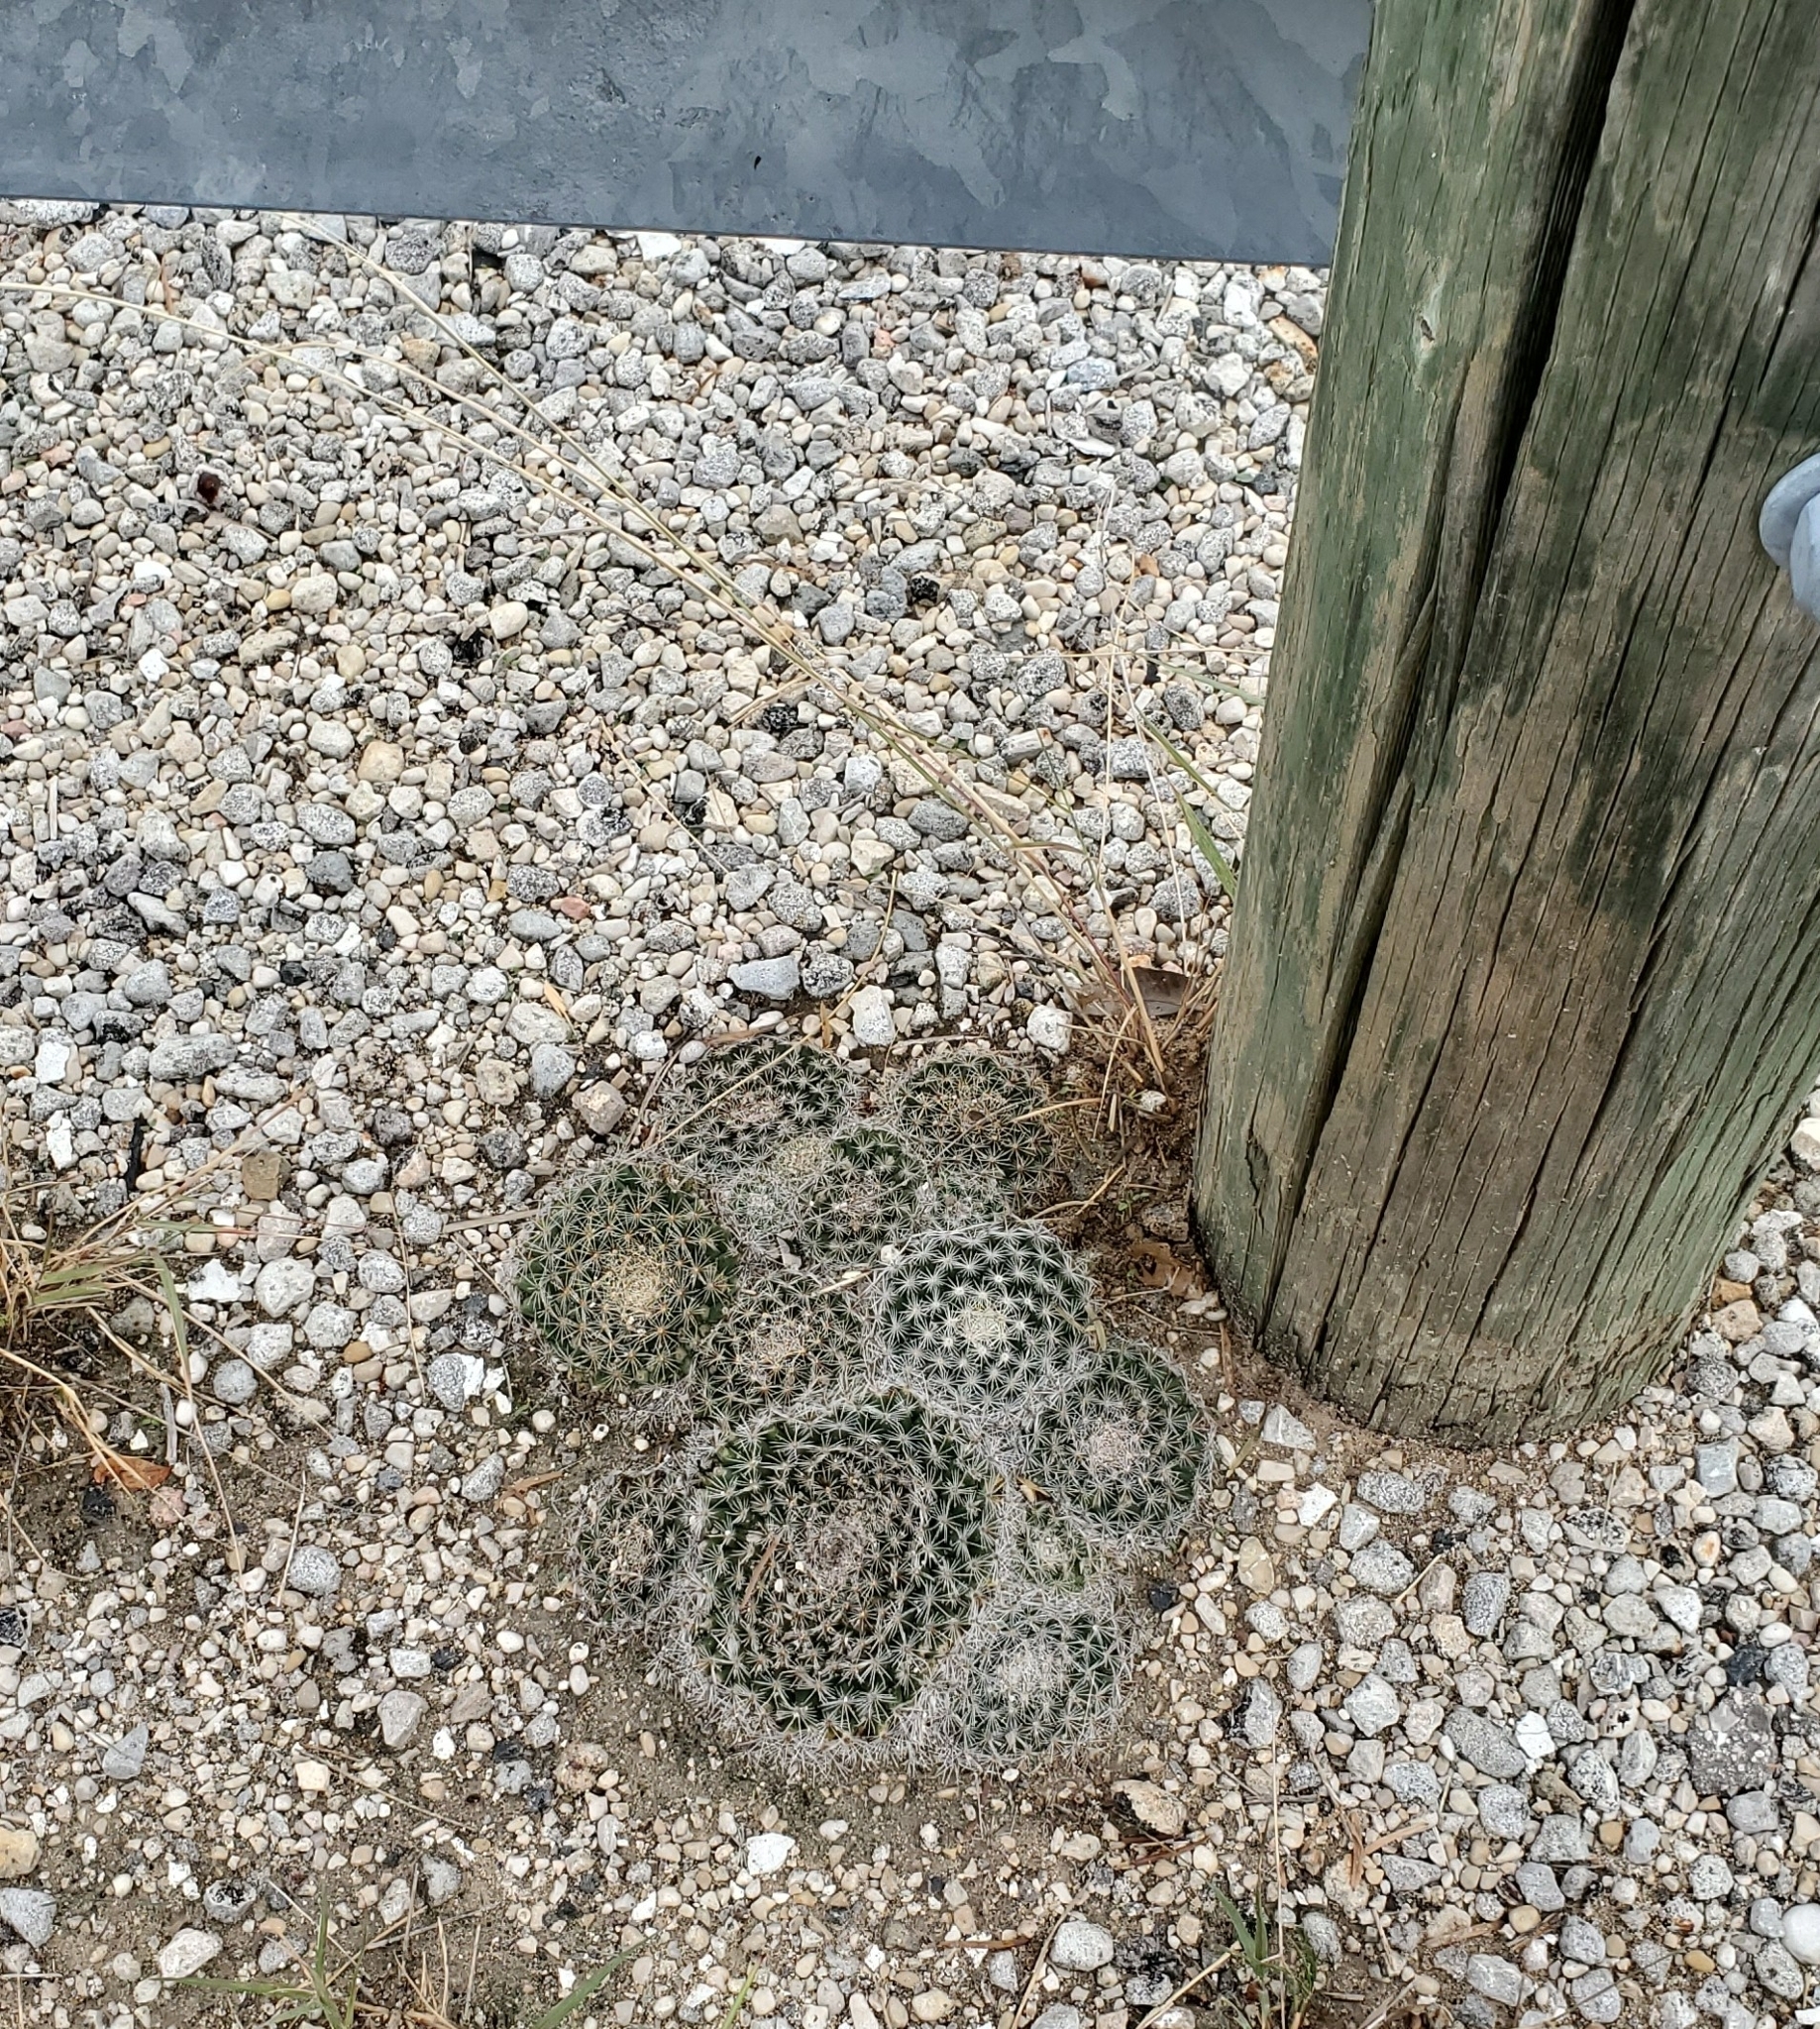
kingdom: Plantae
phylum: Tracheophyta
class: Magnoliopsida
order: Caryophyllales
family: Cactaceae
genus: Mammillaria
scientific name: Mammillaria heyderi
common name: Little nipple cactus
